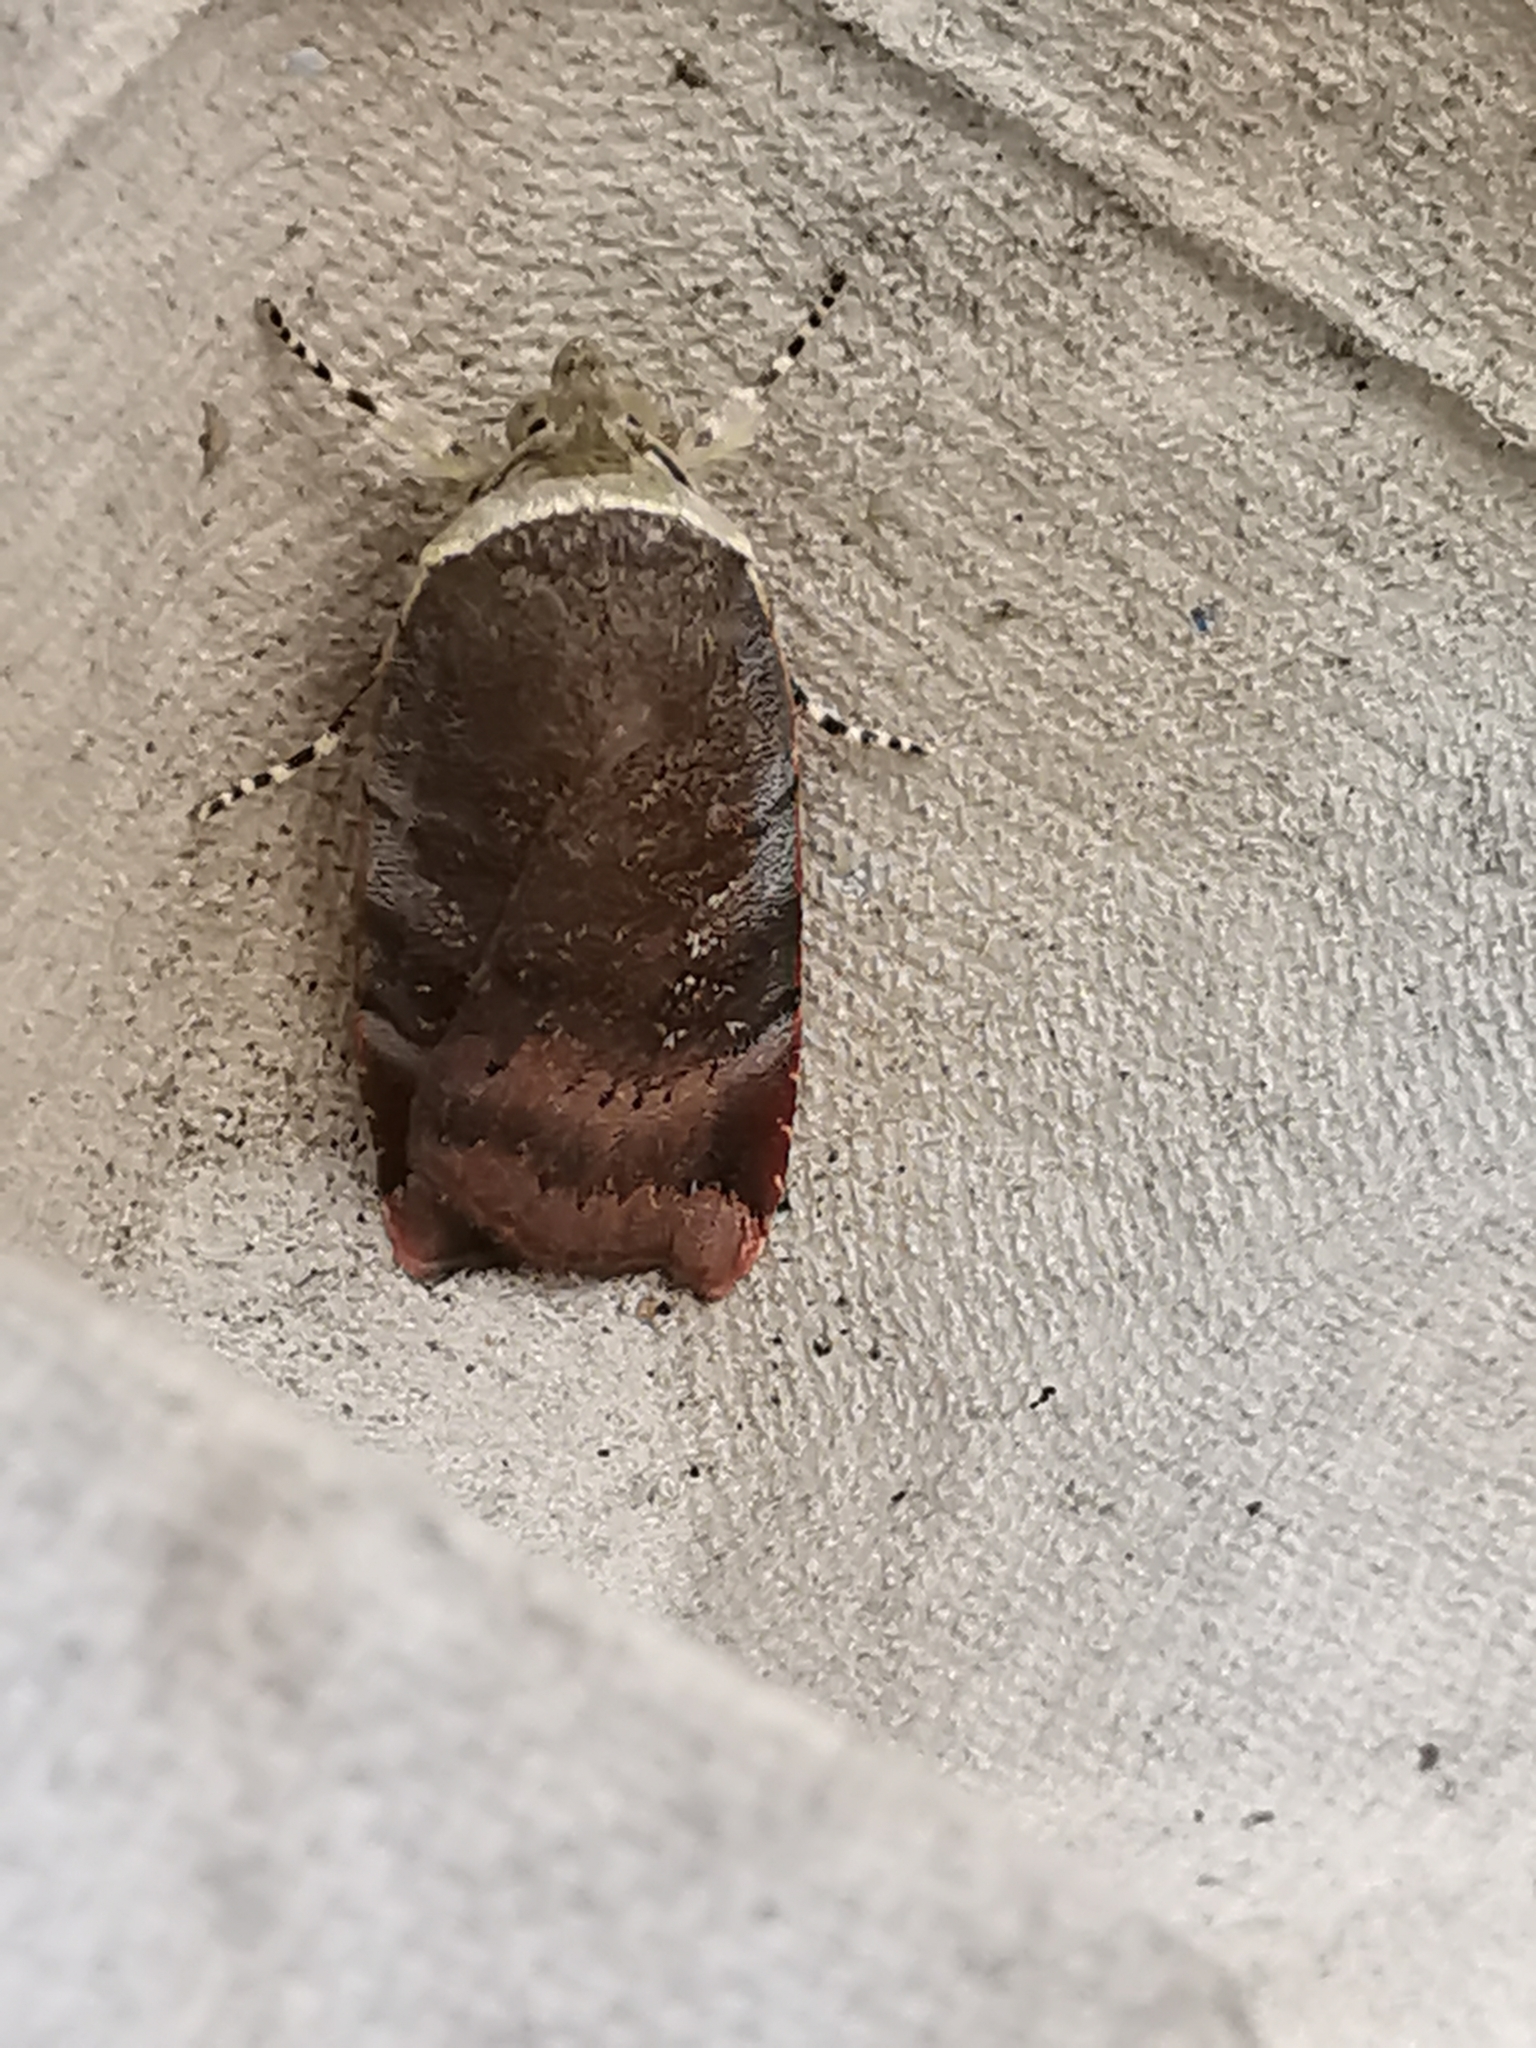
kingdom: Animalia
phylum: Arthropoda
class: Insecta
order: Lepidoptera
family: Noctuidae
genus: Noctua
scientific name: Noctua janthe
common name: Lesser broad-bordered yellow underwing
